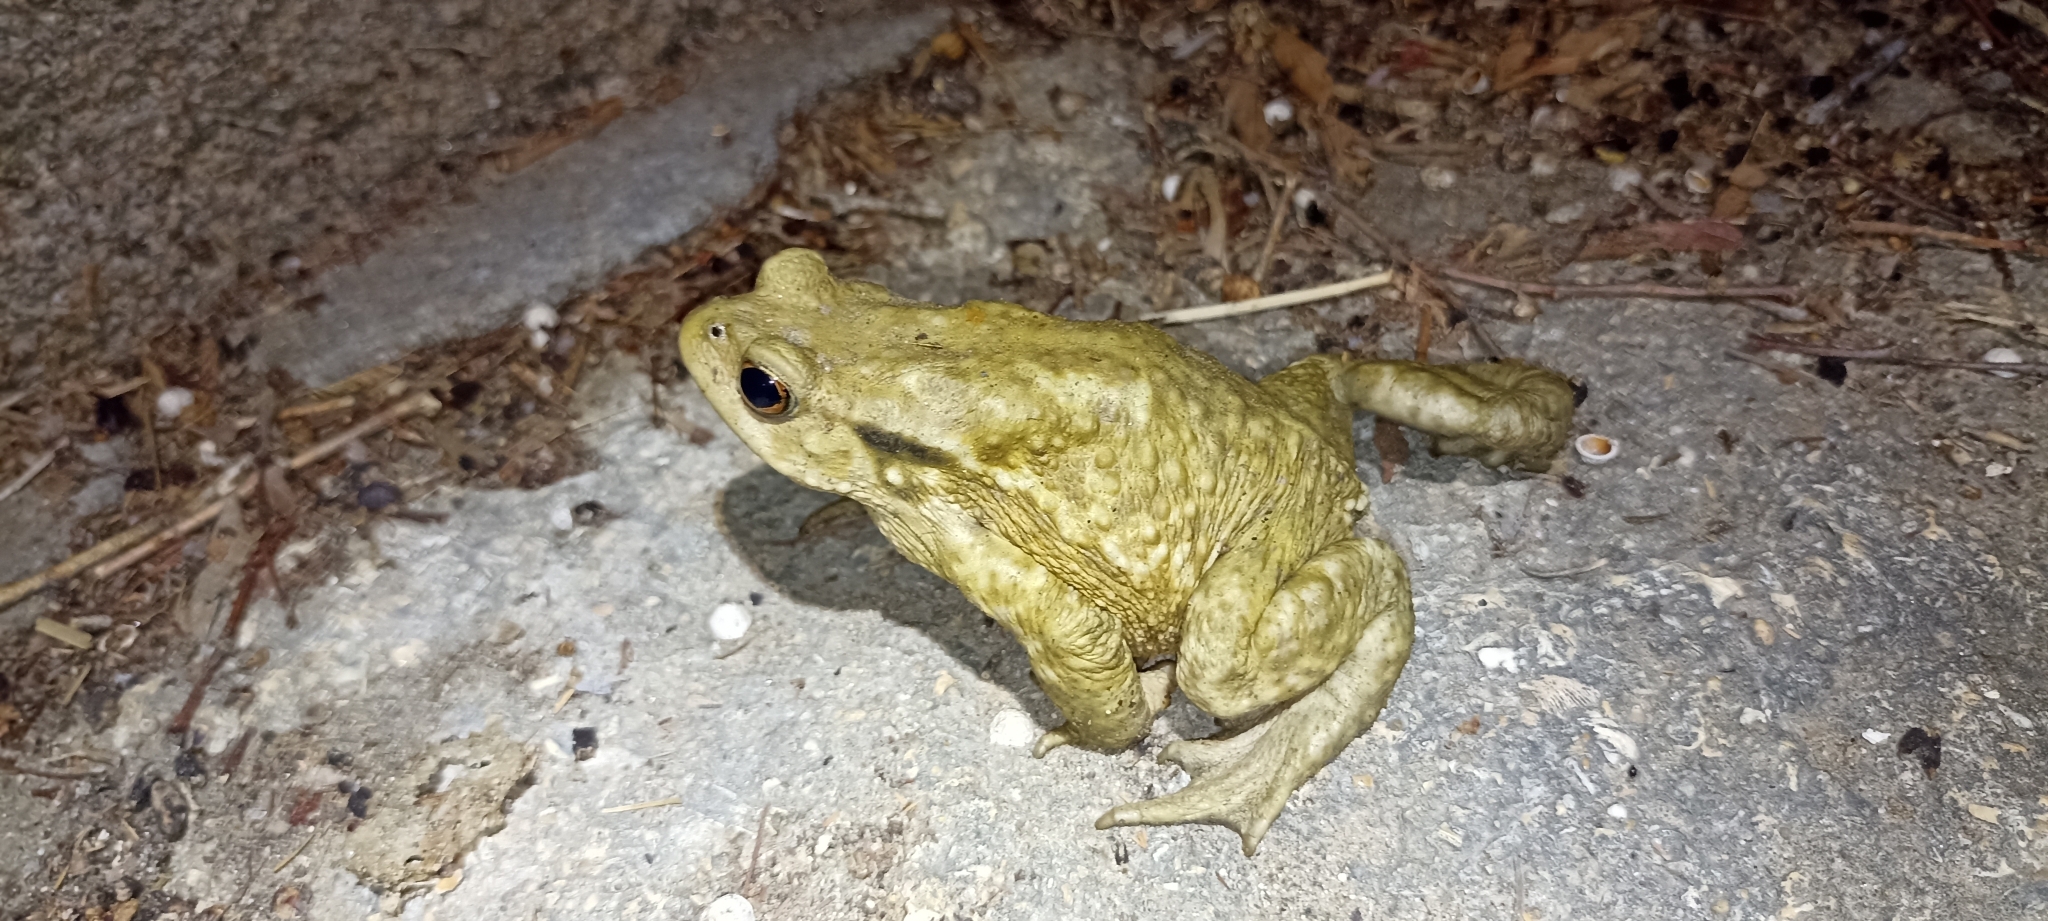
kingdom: Animalia
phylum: Chordata
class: Amphibia
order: Anura
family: Bufonidae
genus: Bufo
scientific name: Bufo spinosus
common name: Western common toad
